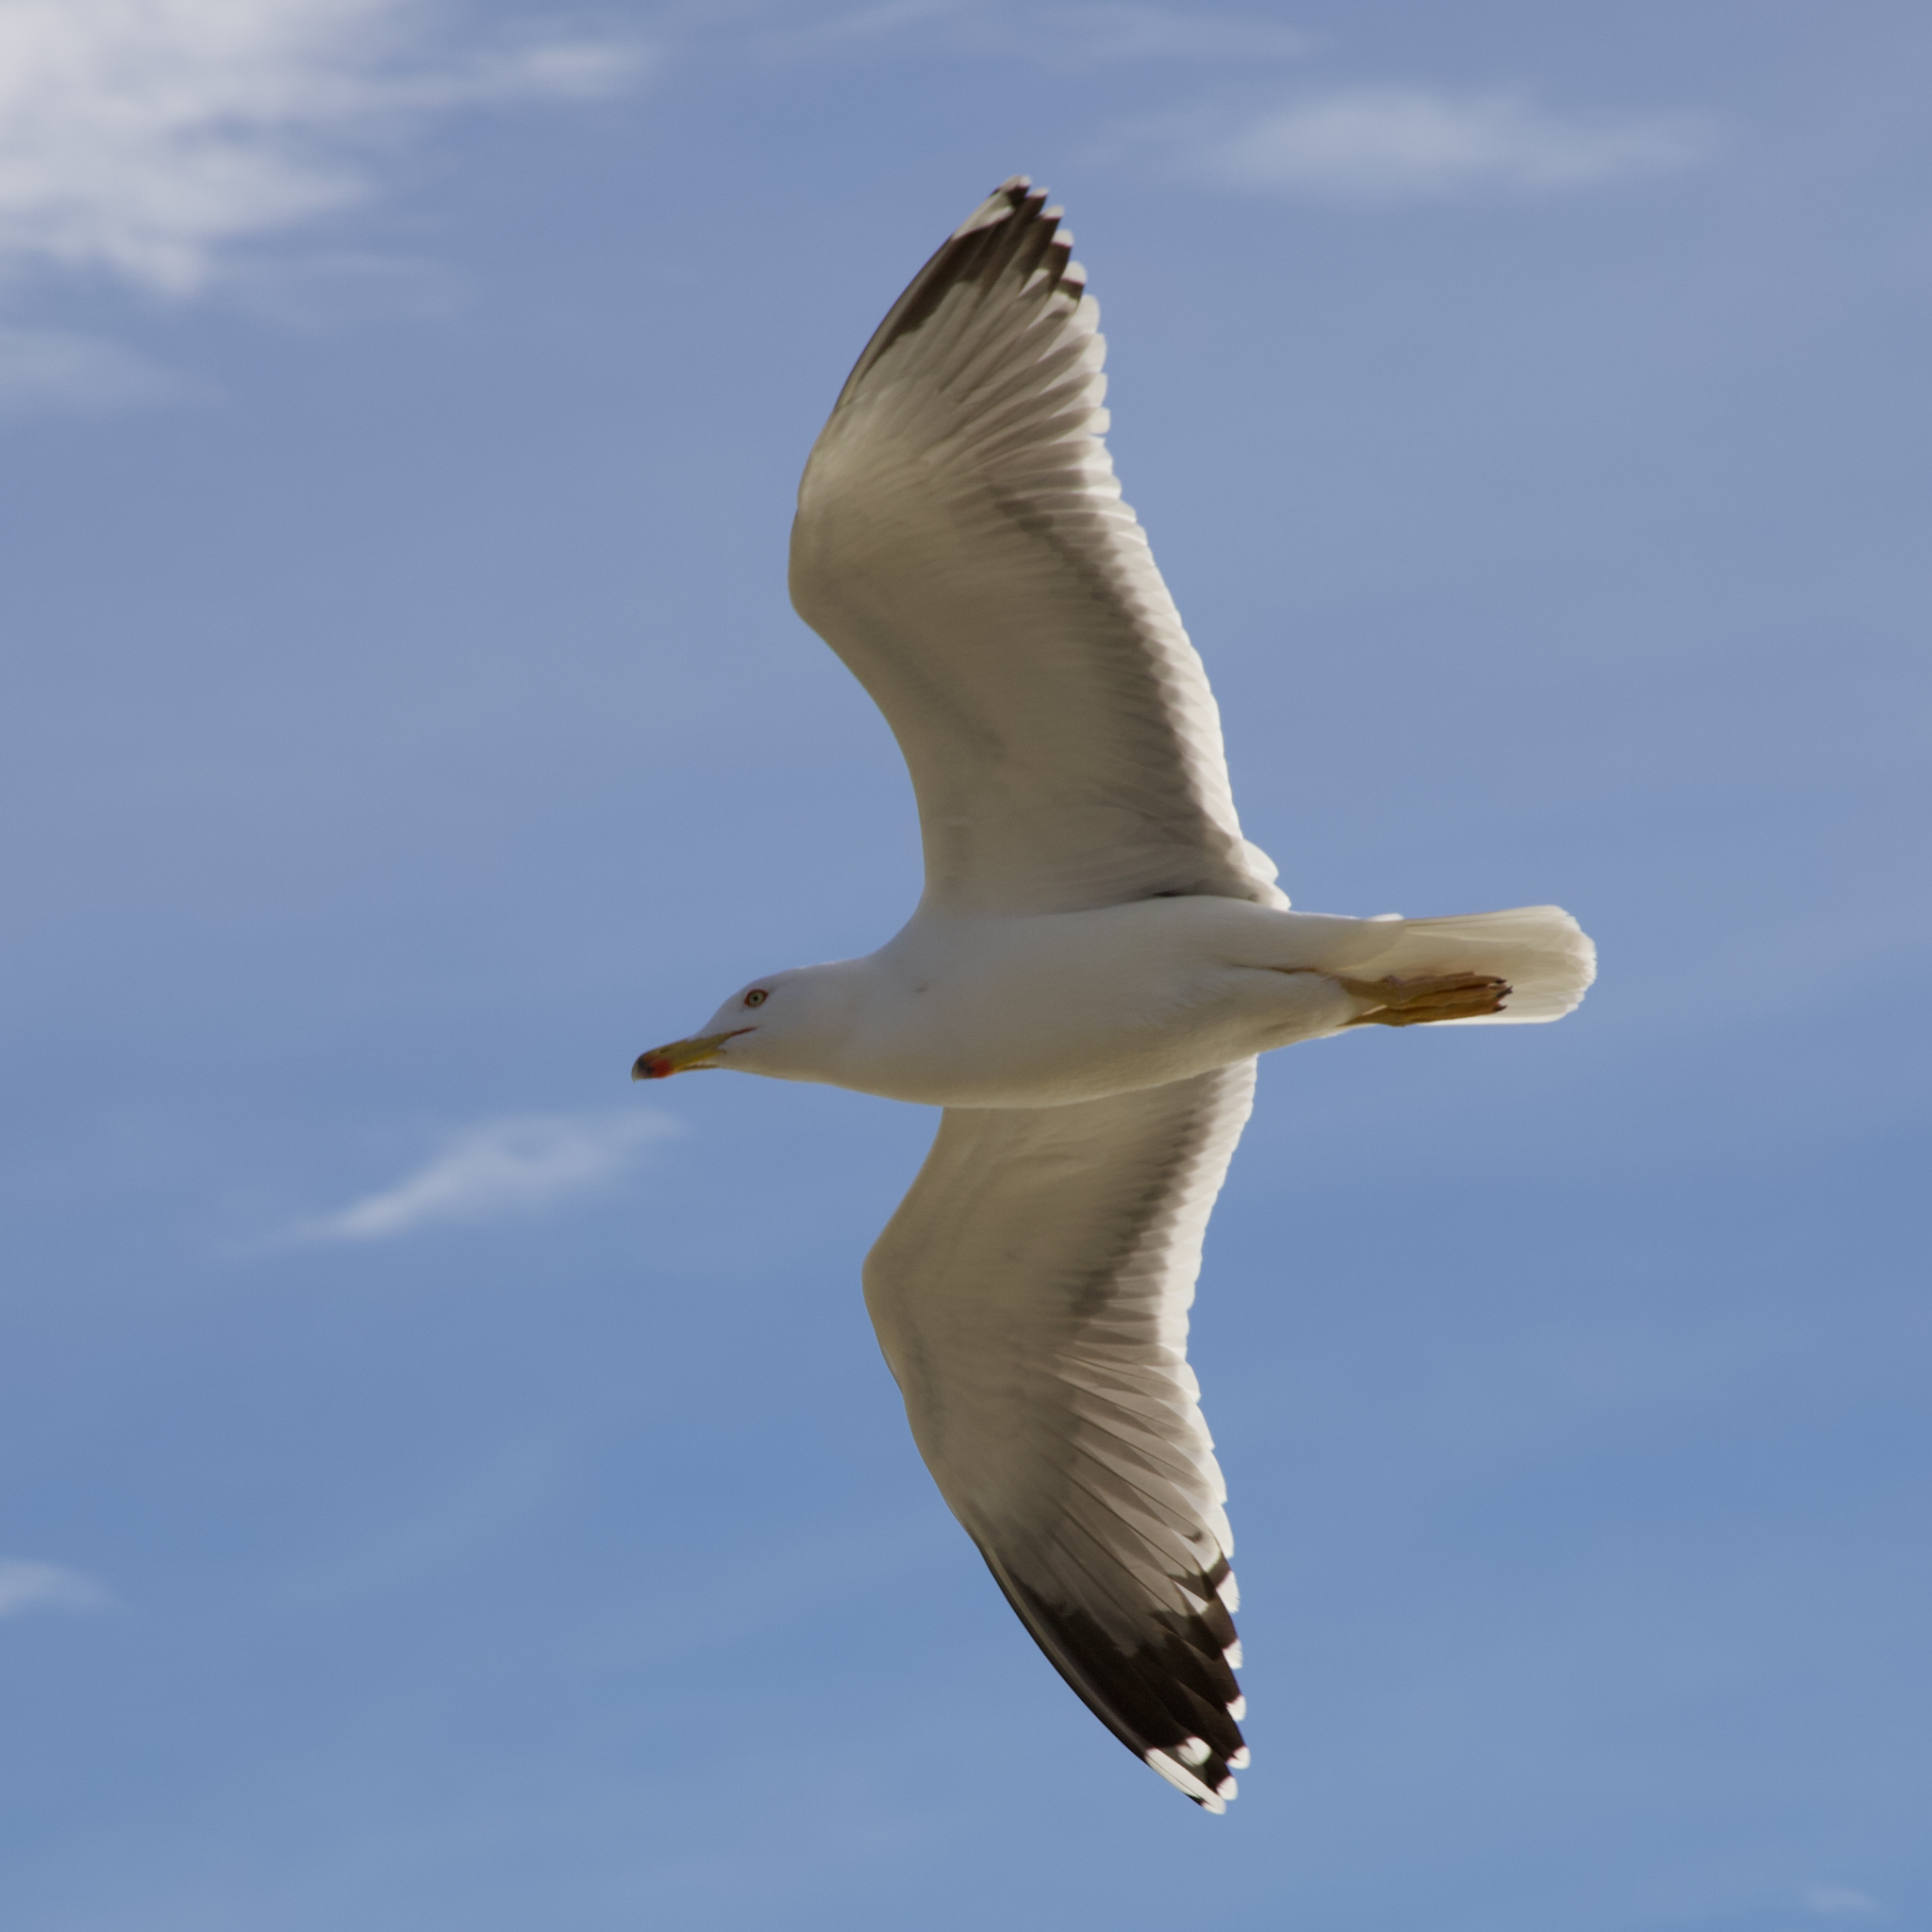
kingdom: Animalia
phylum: Chordata
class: Aves
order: Charadriiformes
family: Laridae
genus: Larus
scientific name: Larus michahellis
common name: Yellow-legged gull
